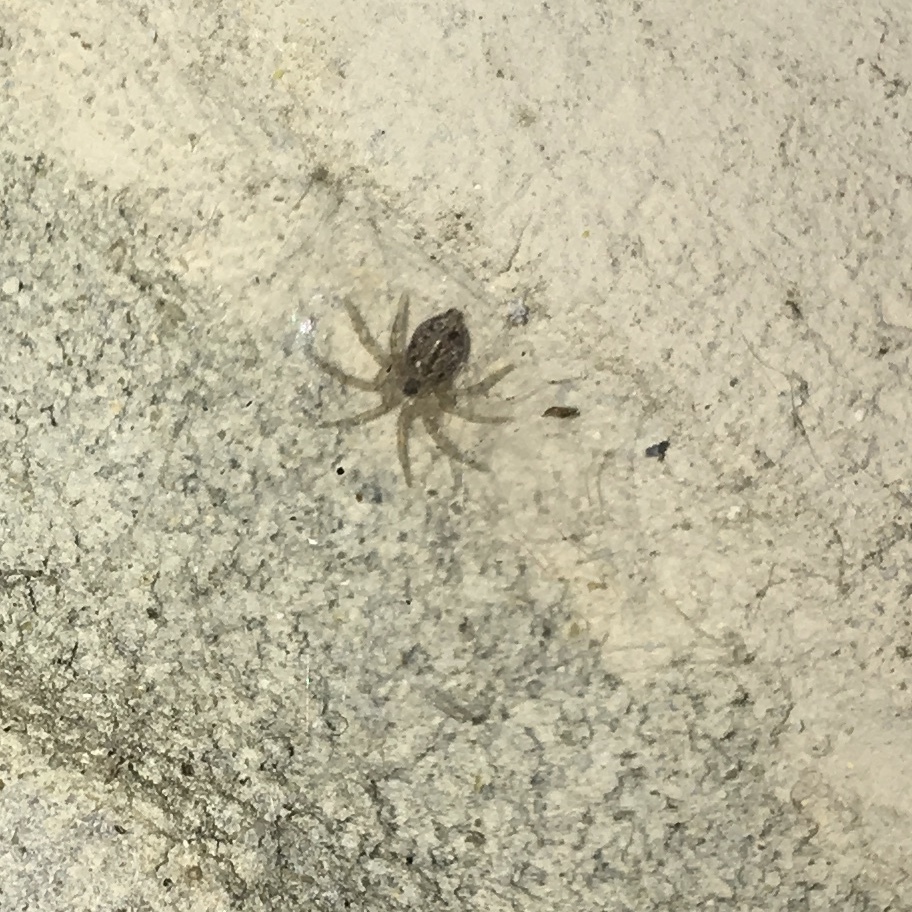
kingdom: Animalia
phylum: Arthropoda
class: Arachnida
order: Araneae
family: Oecobiidae
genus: Oecobius
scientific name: Oecobius navus
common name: Flatmesh weaver
